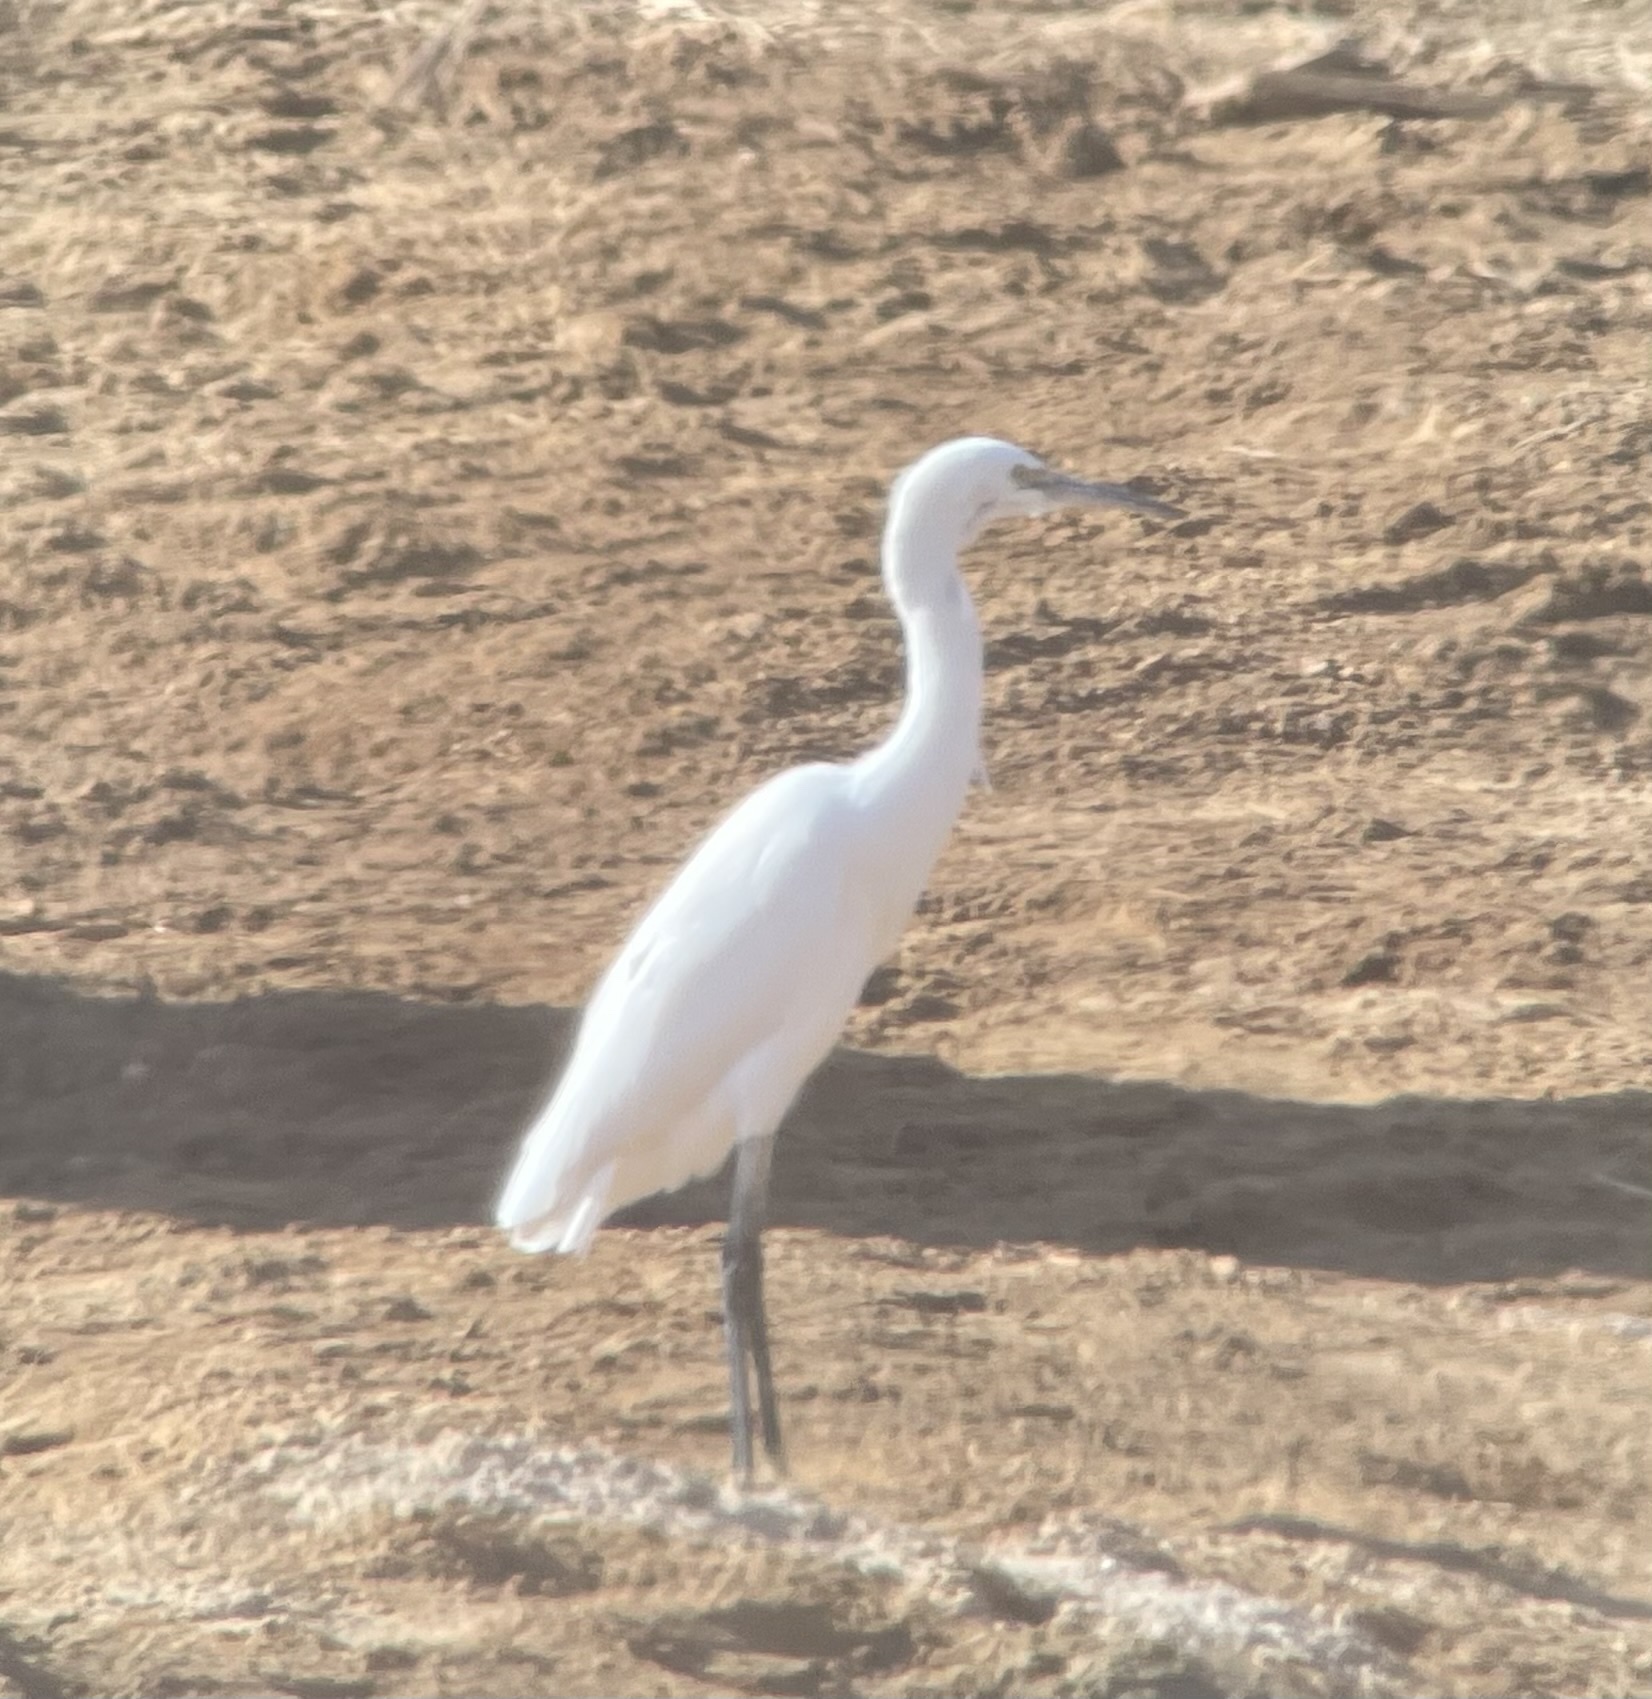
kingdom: Animalia
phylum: Chordata
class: Aves
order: Pelecaniformes
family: Ardeidae
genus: Egretta
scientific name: Egretta garzetta
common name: Little egret
